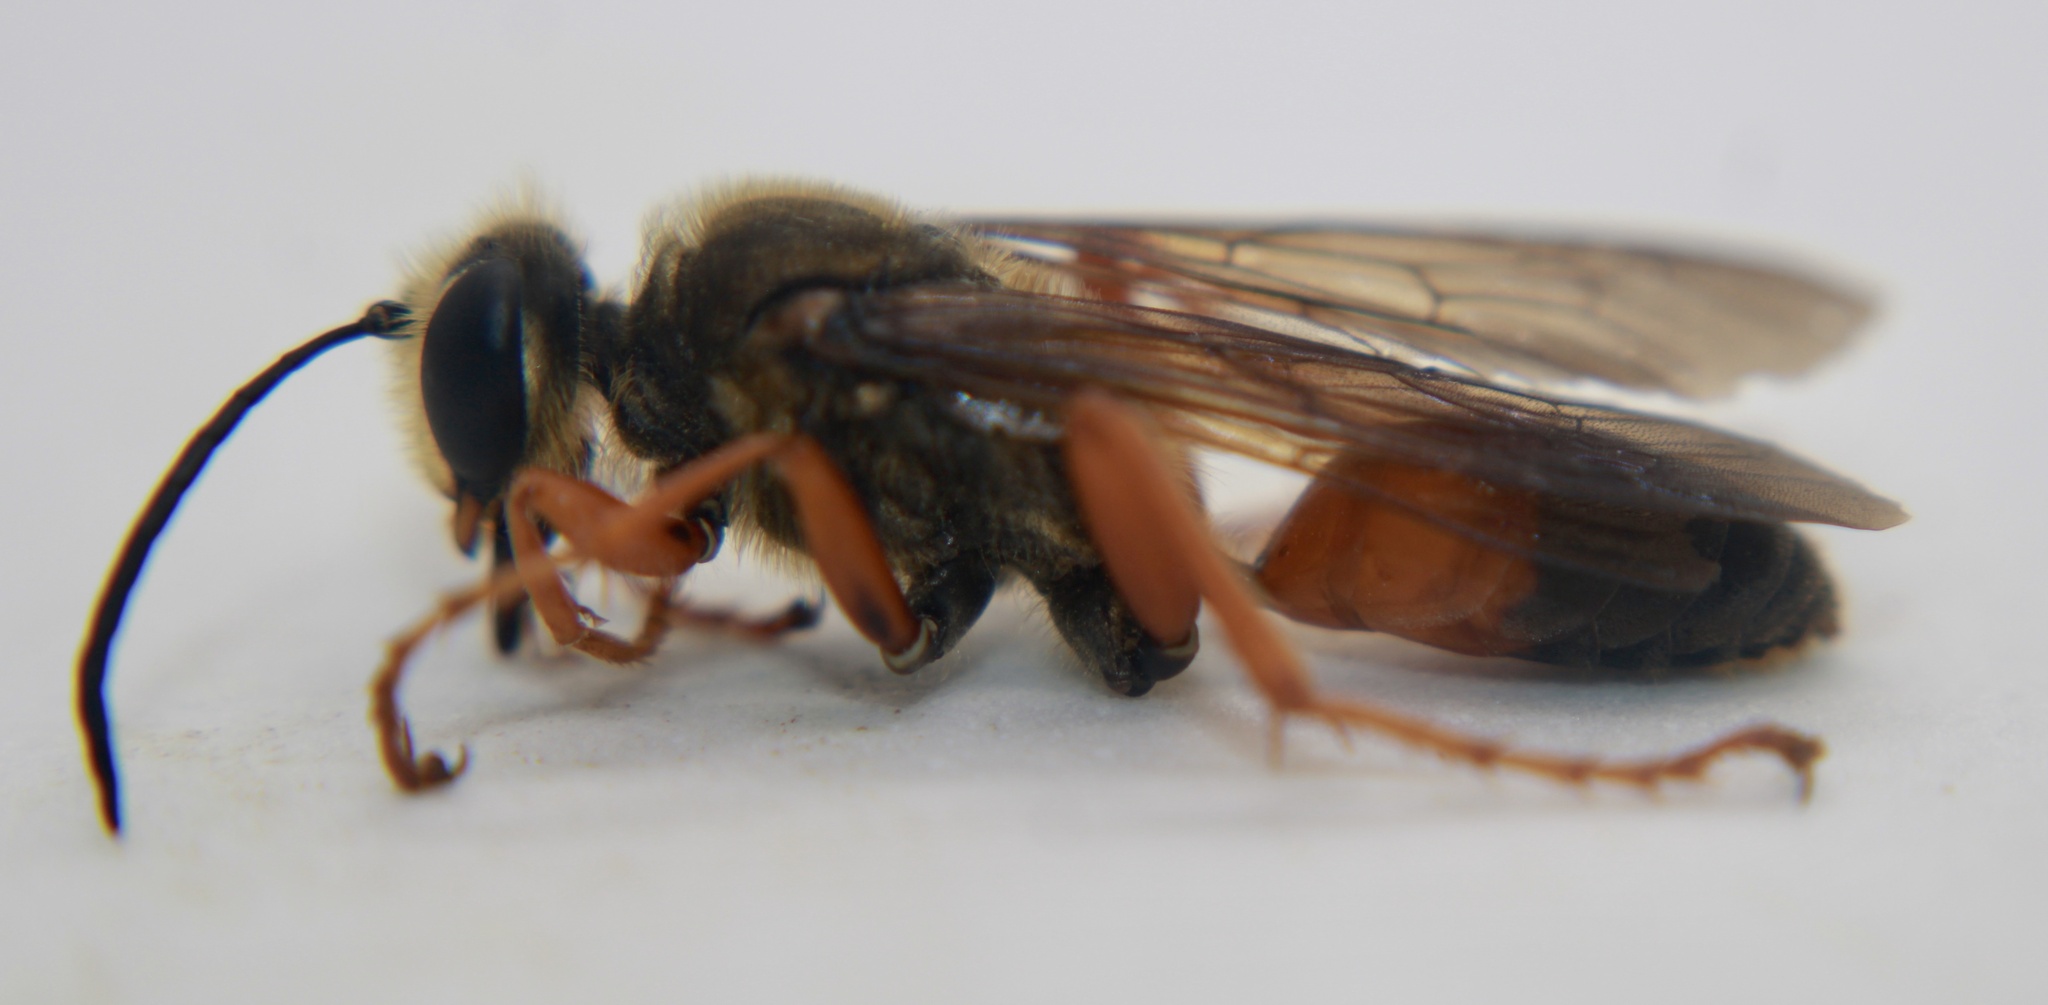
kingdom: Animalia
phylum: Arthropoda
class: Insecta
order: Hymenoptera
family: Sphecidae
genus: Sphex
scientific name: Sphex ichneumoneus
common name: Great golden digger wasp
